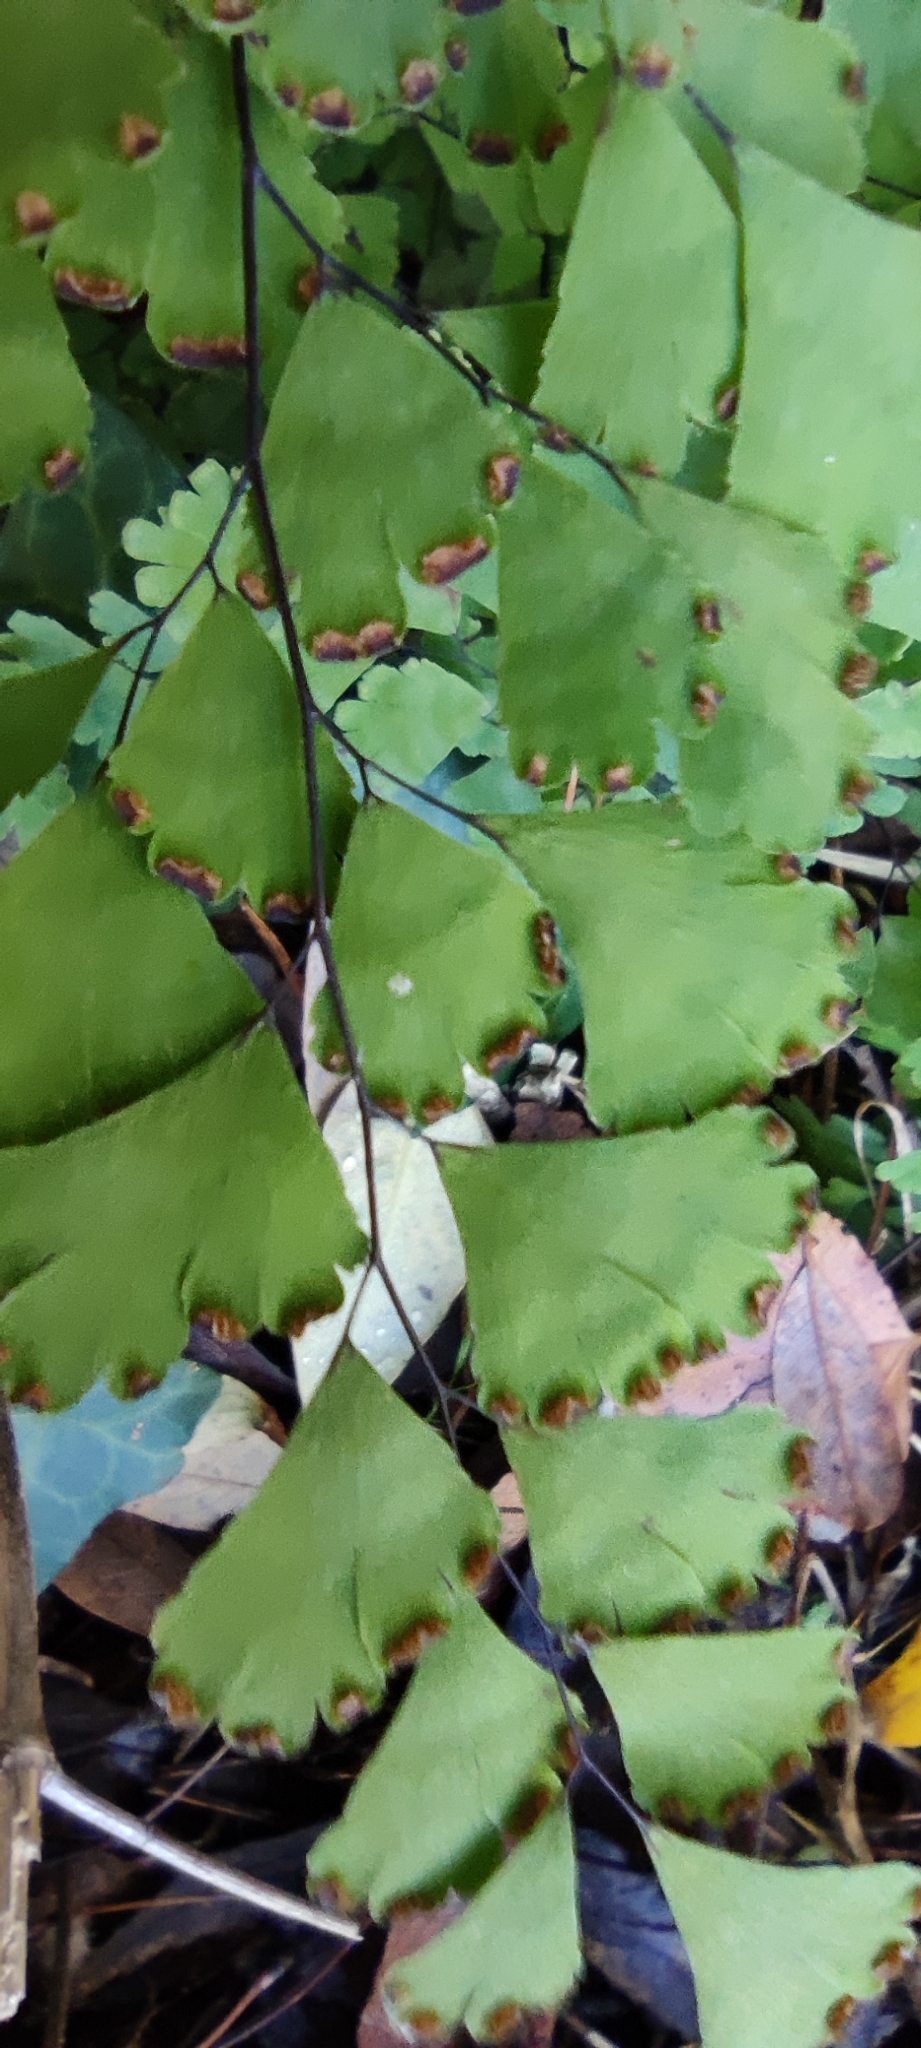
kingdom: Plantae
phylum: Tracheophyta
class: Polypodiopsida
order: Polypodiales
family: Pteridaceae
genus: Adiantum
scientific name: Adiantum capillus-veneris
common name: Maidenhair fern
